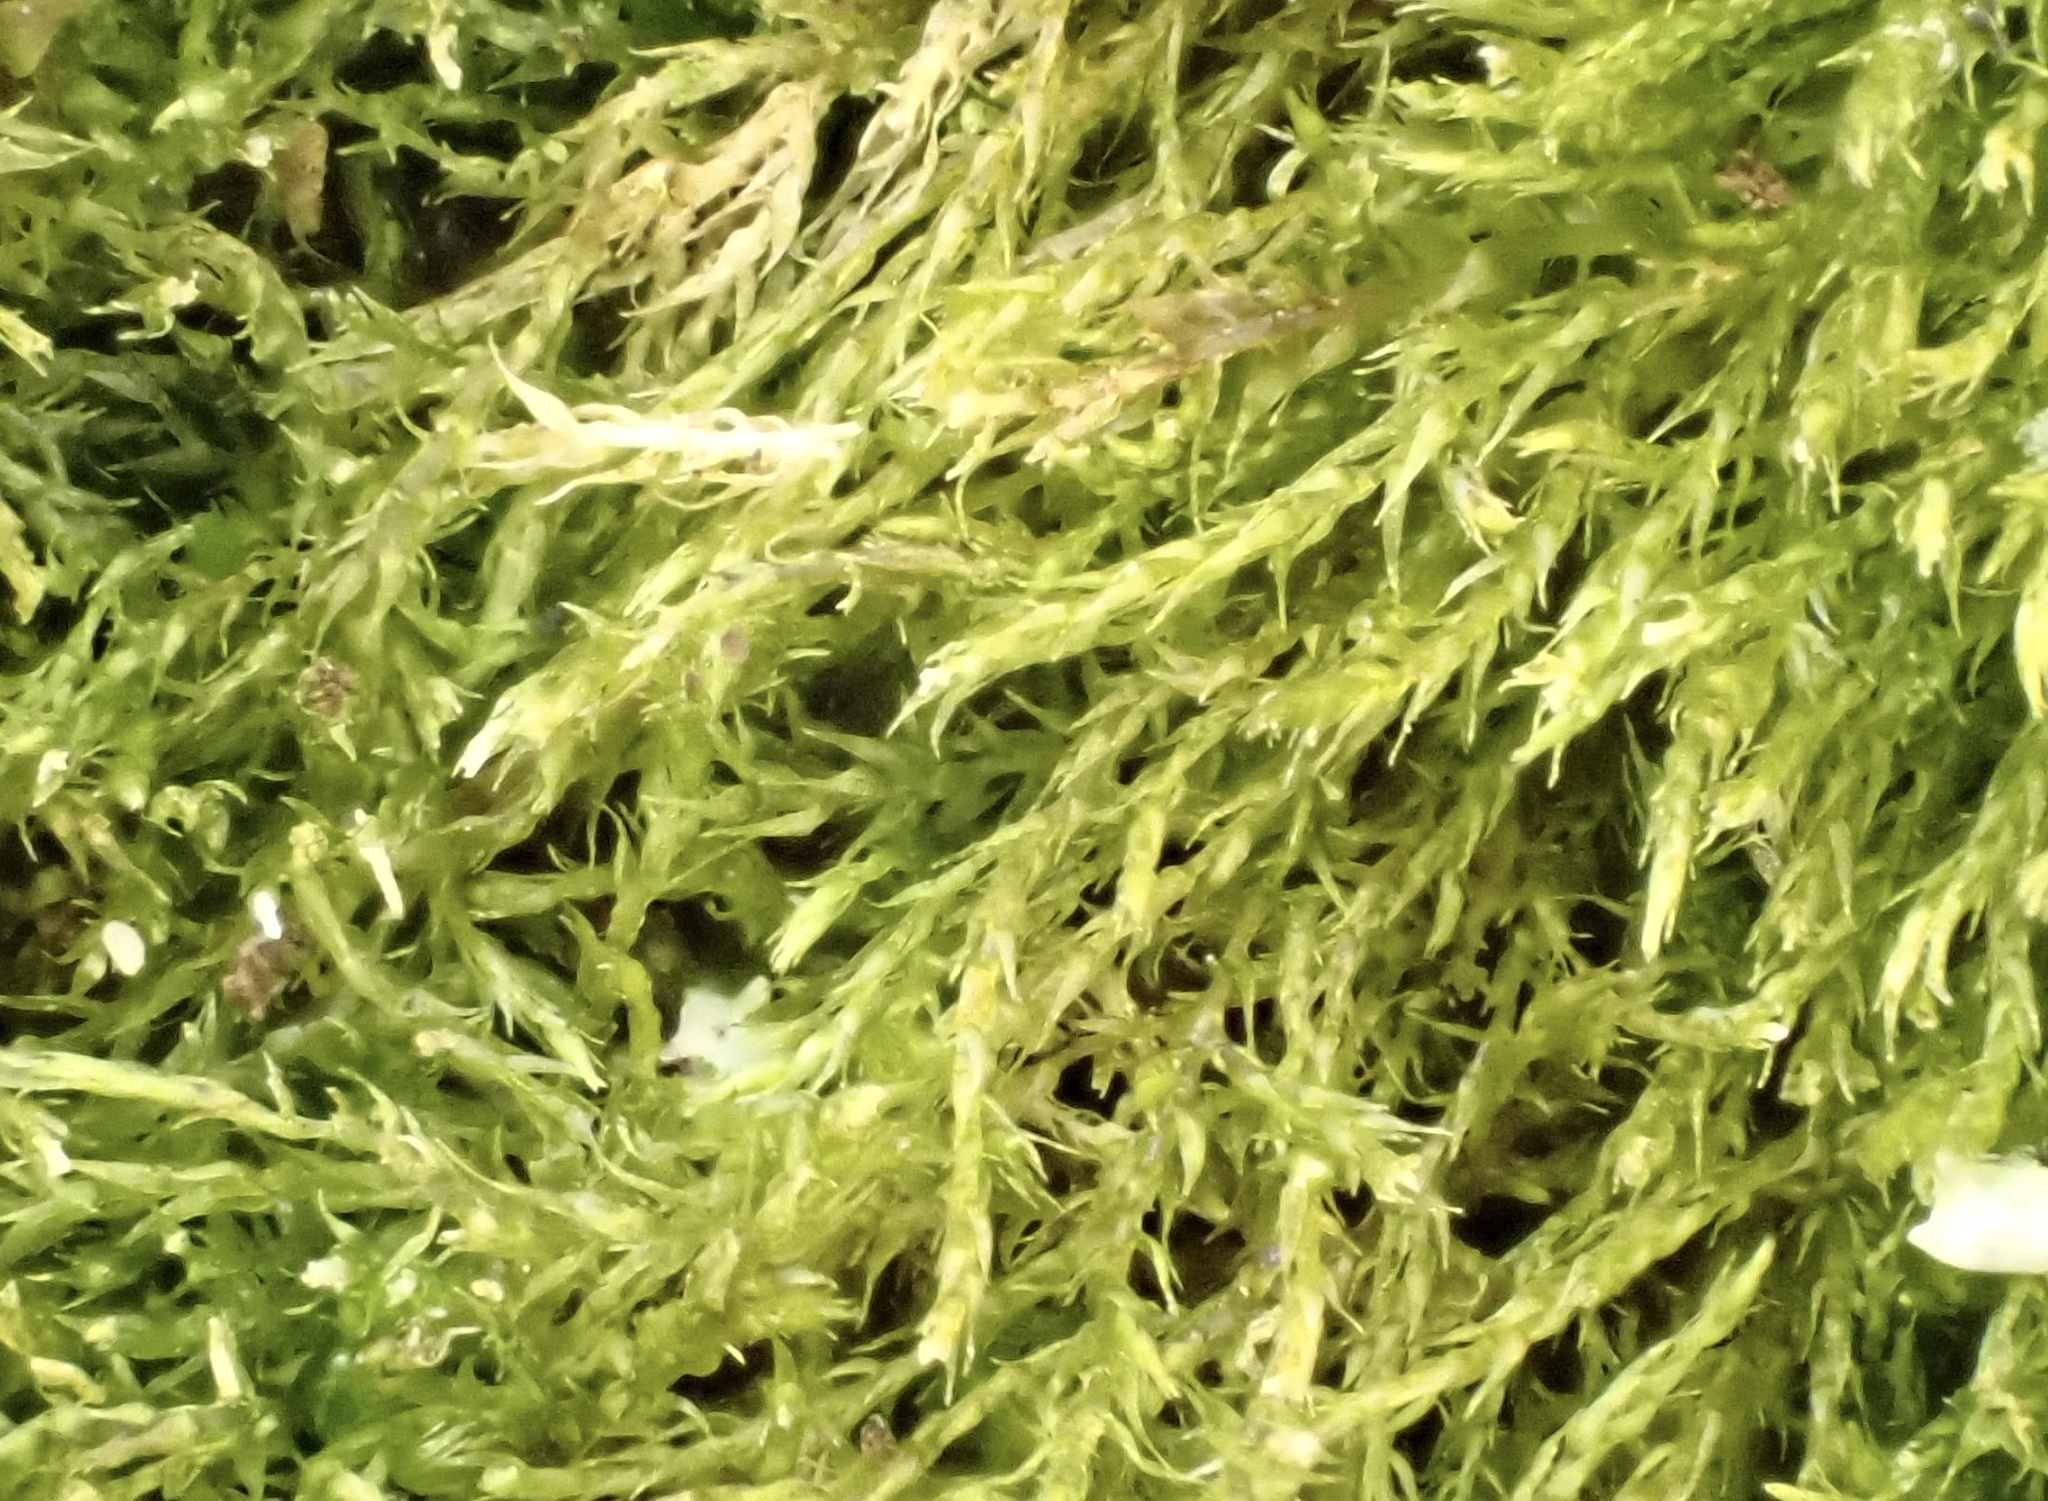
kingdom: Plantae
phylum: Bryophyta
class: Bryopsida
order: Hypnales
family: Amblystegiaceae
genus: Amblystegium
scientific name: Amblystegium serpens
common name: Jurkatzka's feather moss
